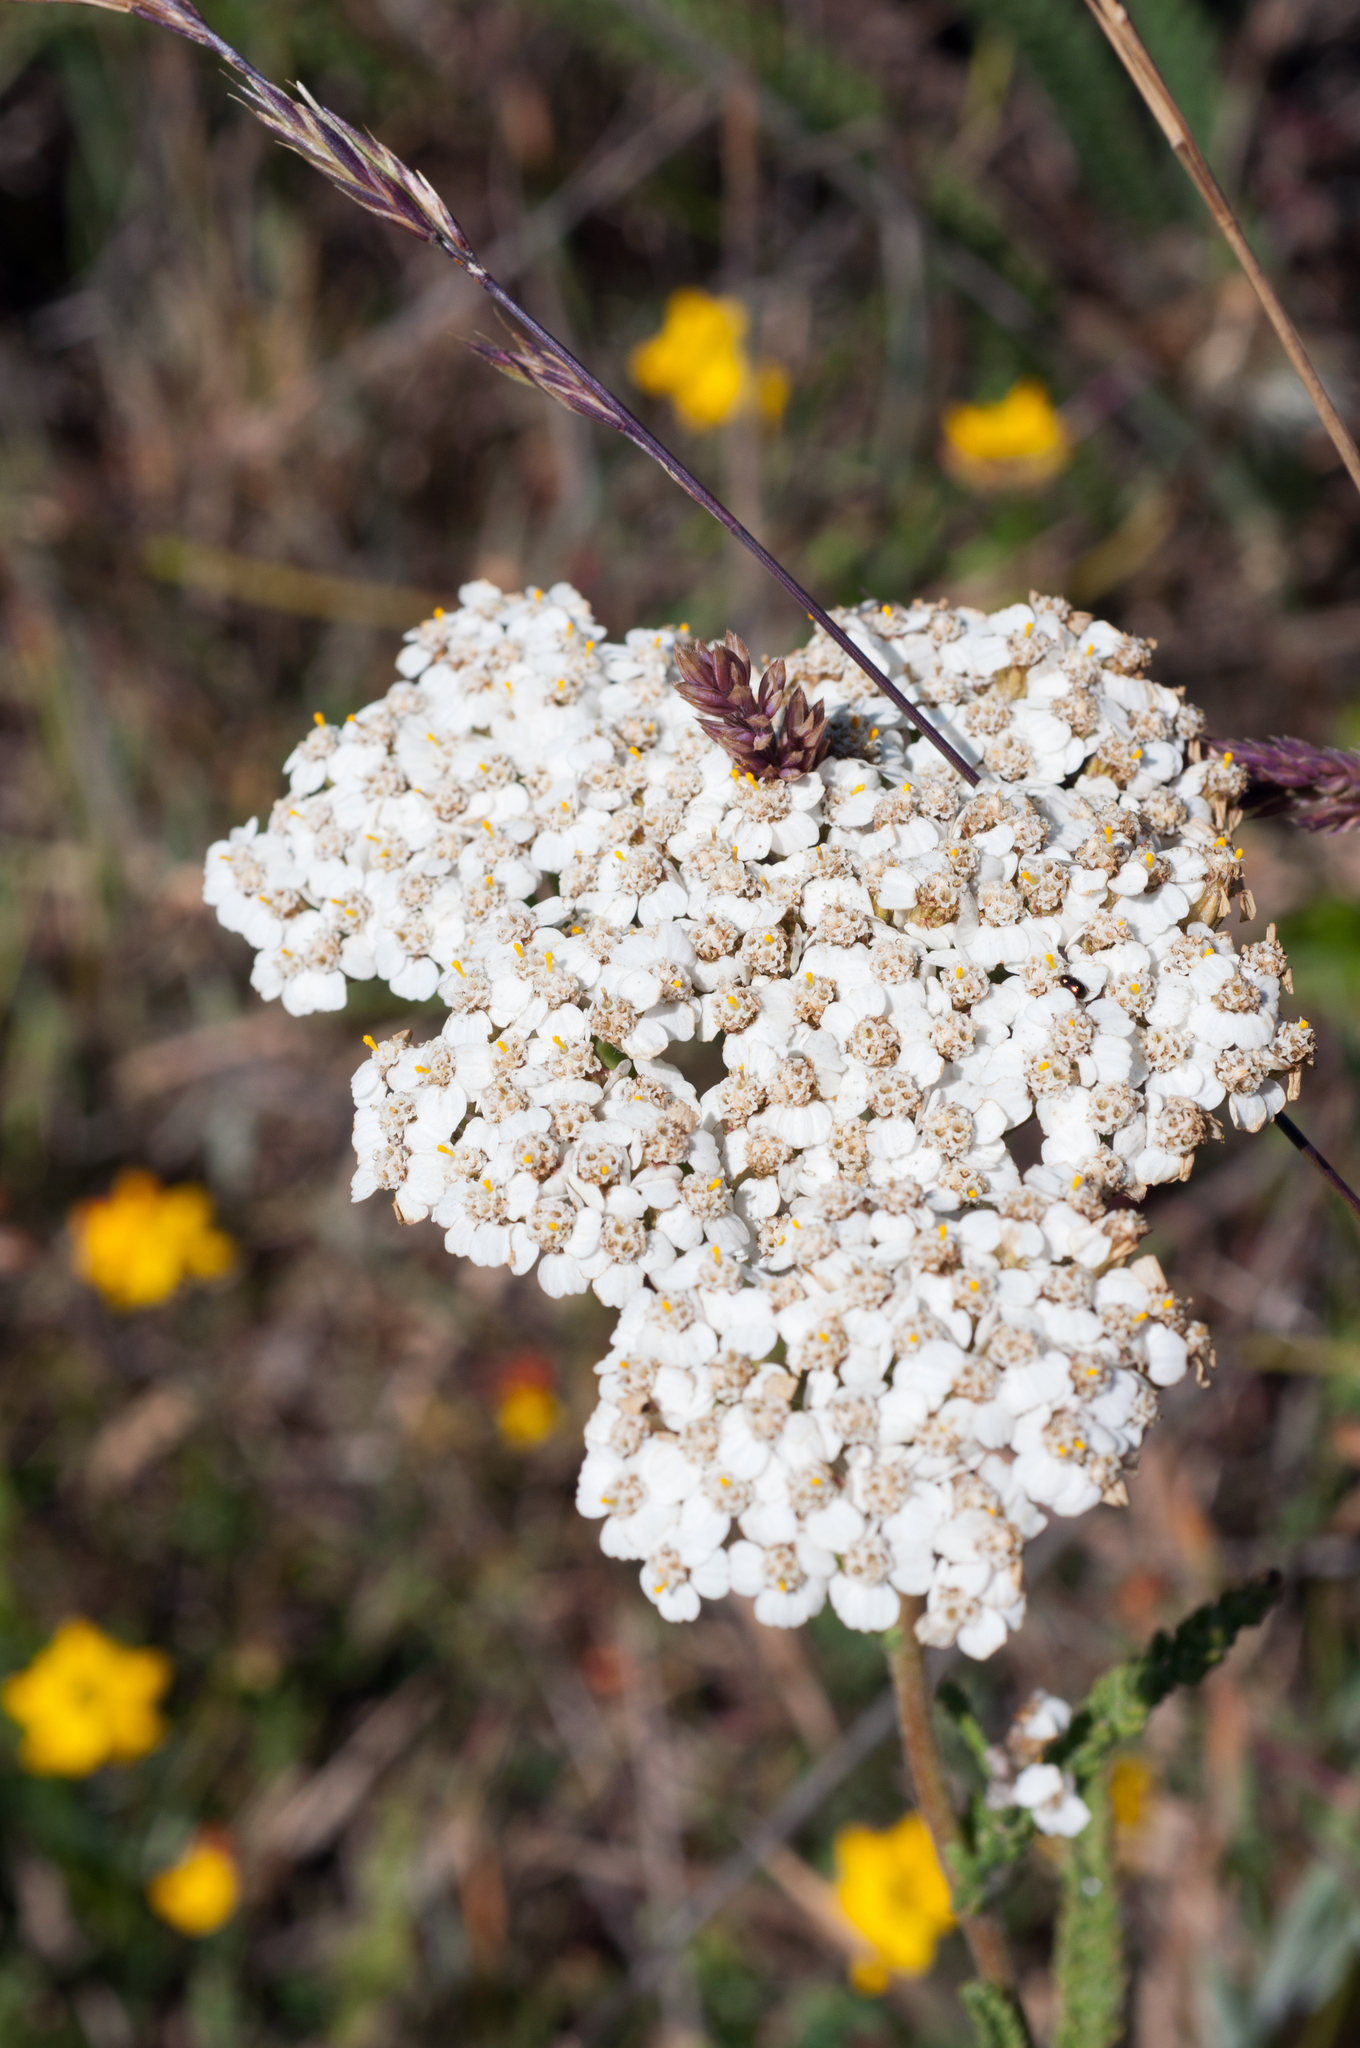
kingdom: Plantae
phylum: Tracheophyta
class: Magnoliopsida
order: Asterales
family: Asteraceae
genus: Achillea
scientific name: Achillea millefolium
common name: Yarrow
